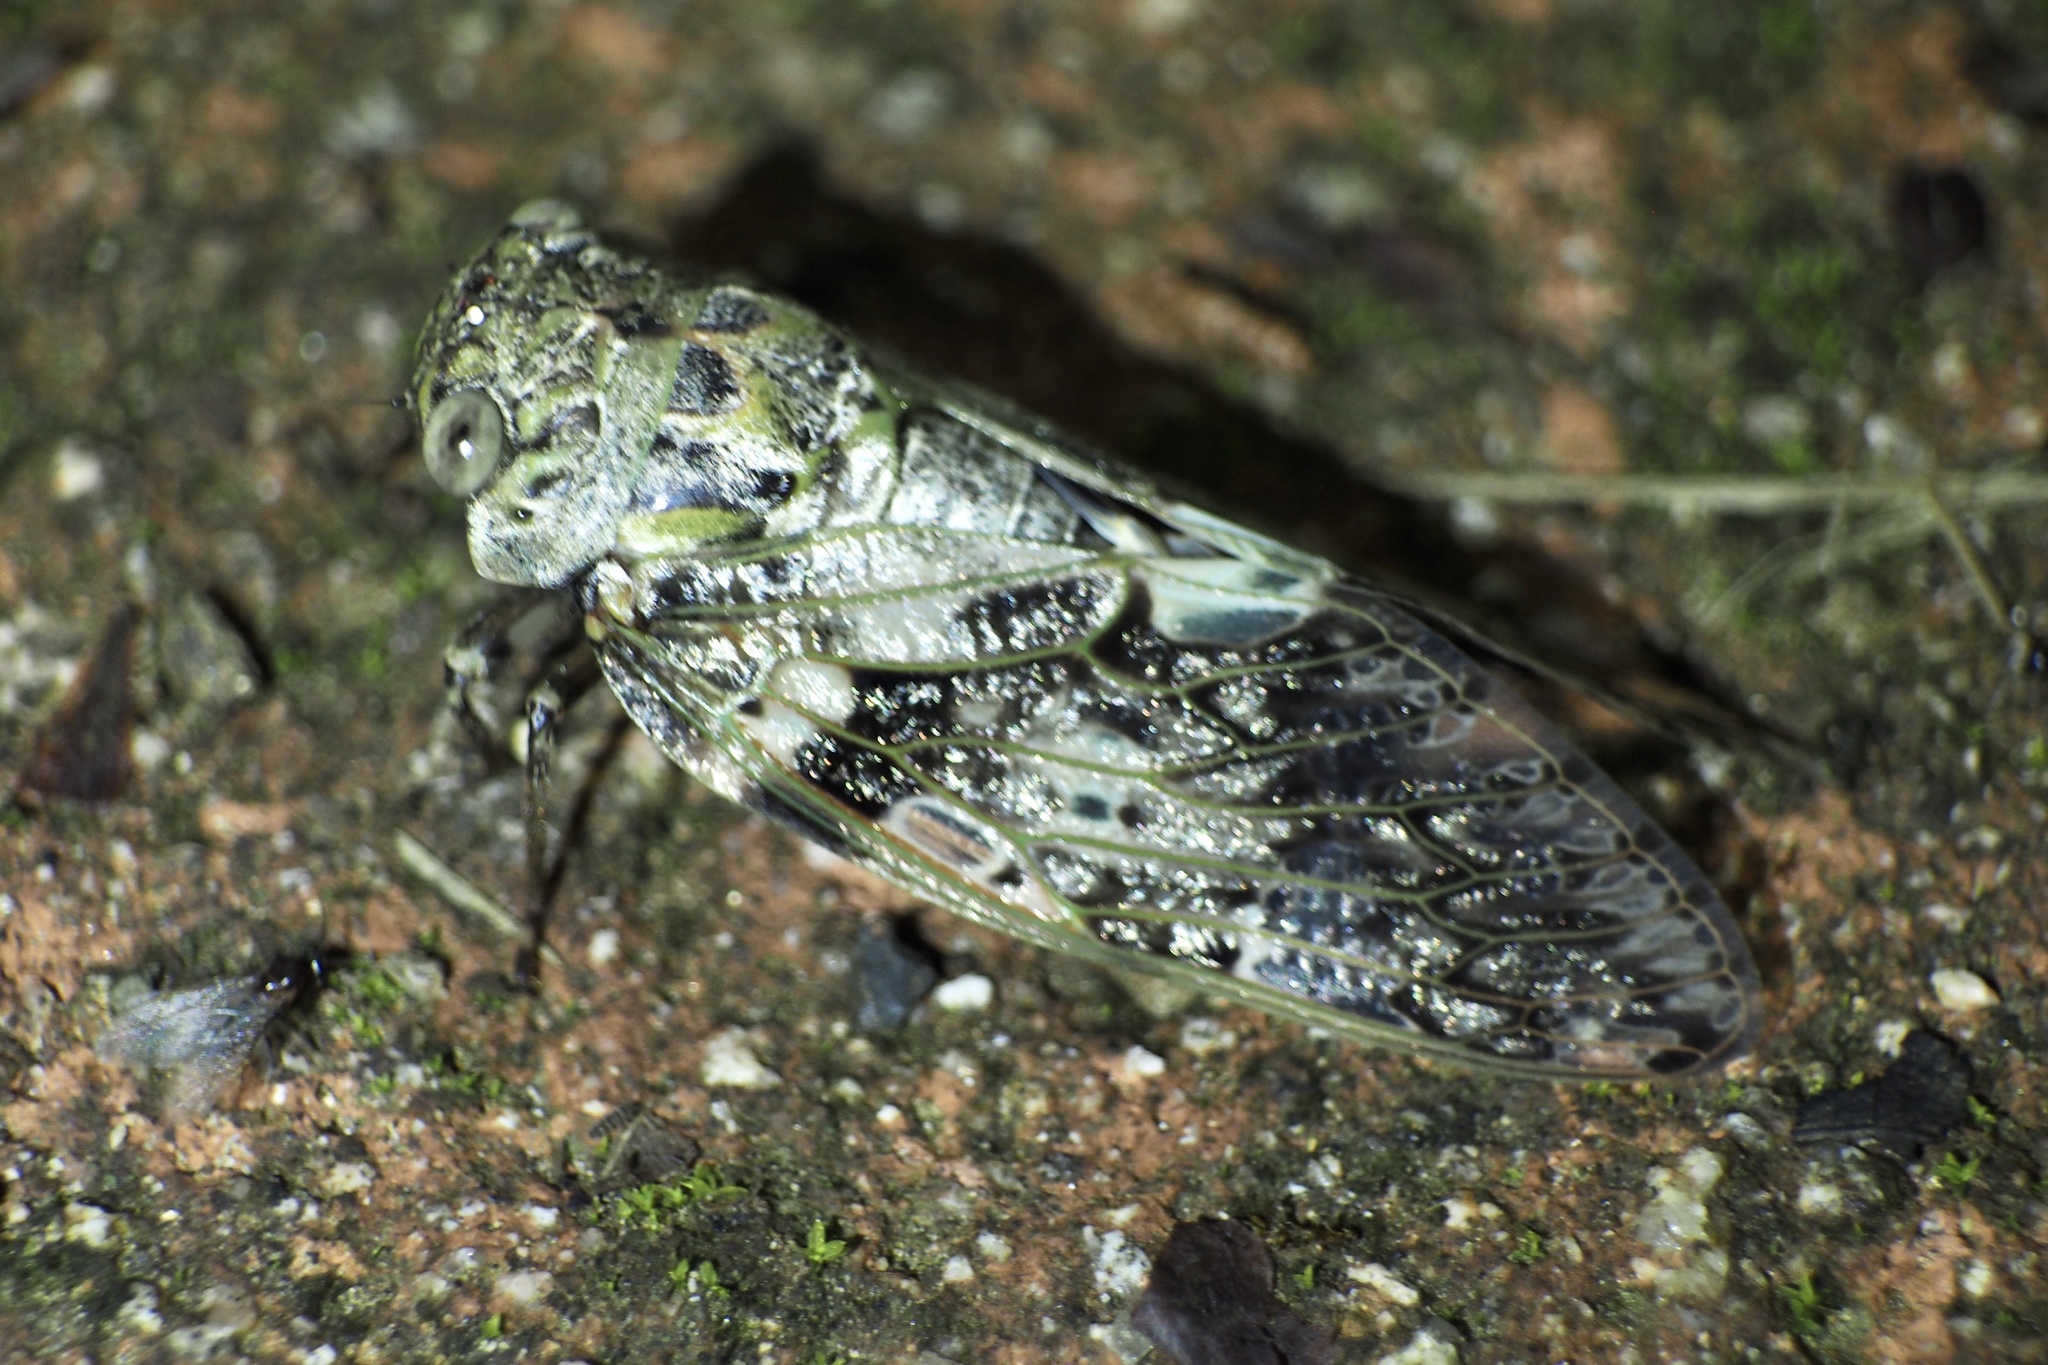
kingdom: Animalia
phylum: Arthropoda
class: Insecta
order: Hemiptera
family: Cicadidae
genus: Platypleura
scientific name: Platypleura kaempferi
